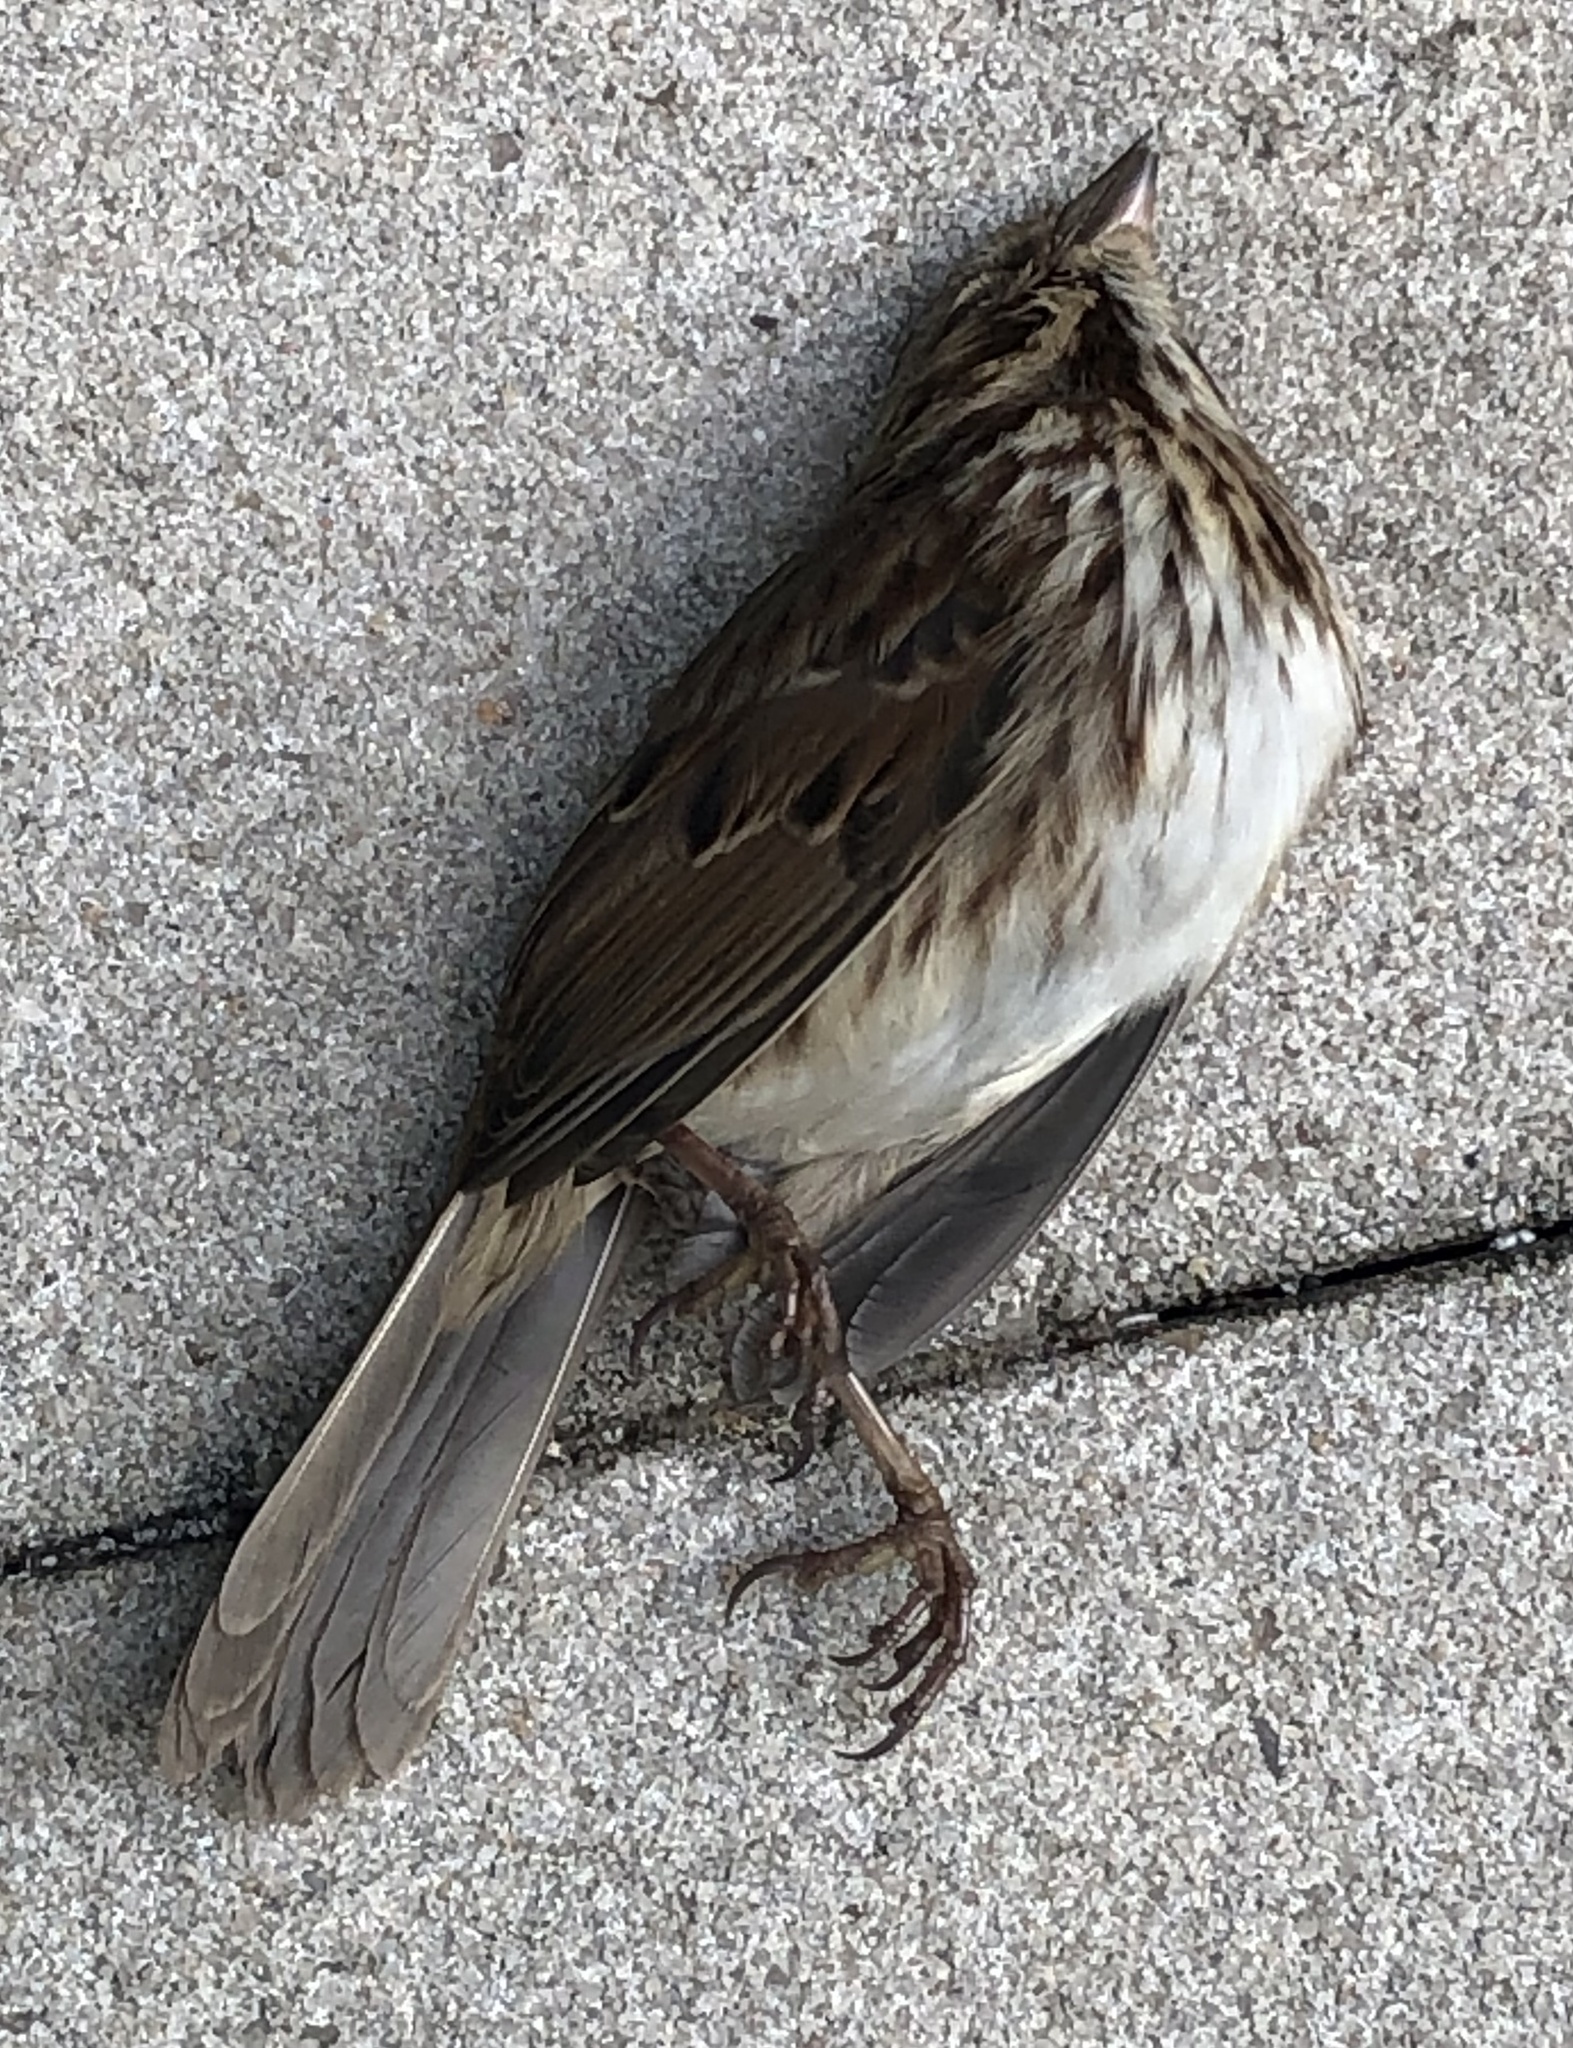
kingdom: Animalia
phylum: Chordata
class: Aves
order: Passeriformes
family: Passerellidae
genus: Melospiza
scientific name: Melospiza melodia
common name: Song sparrow
